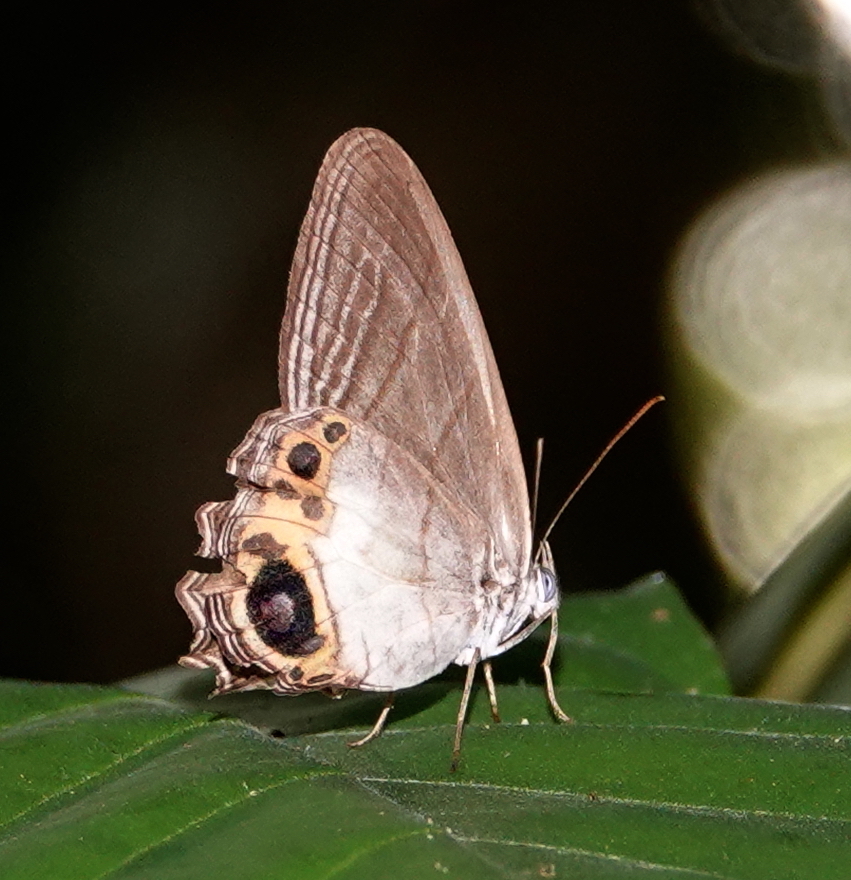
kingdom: Animalia
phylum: Arthropoda
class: Insecta
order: Lepidoptera
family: Nymphalidae
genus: Splendeuptychia
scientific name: Splendeuptychia itonis
